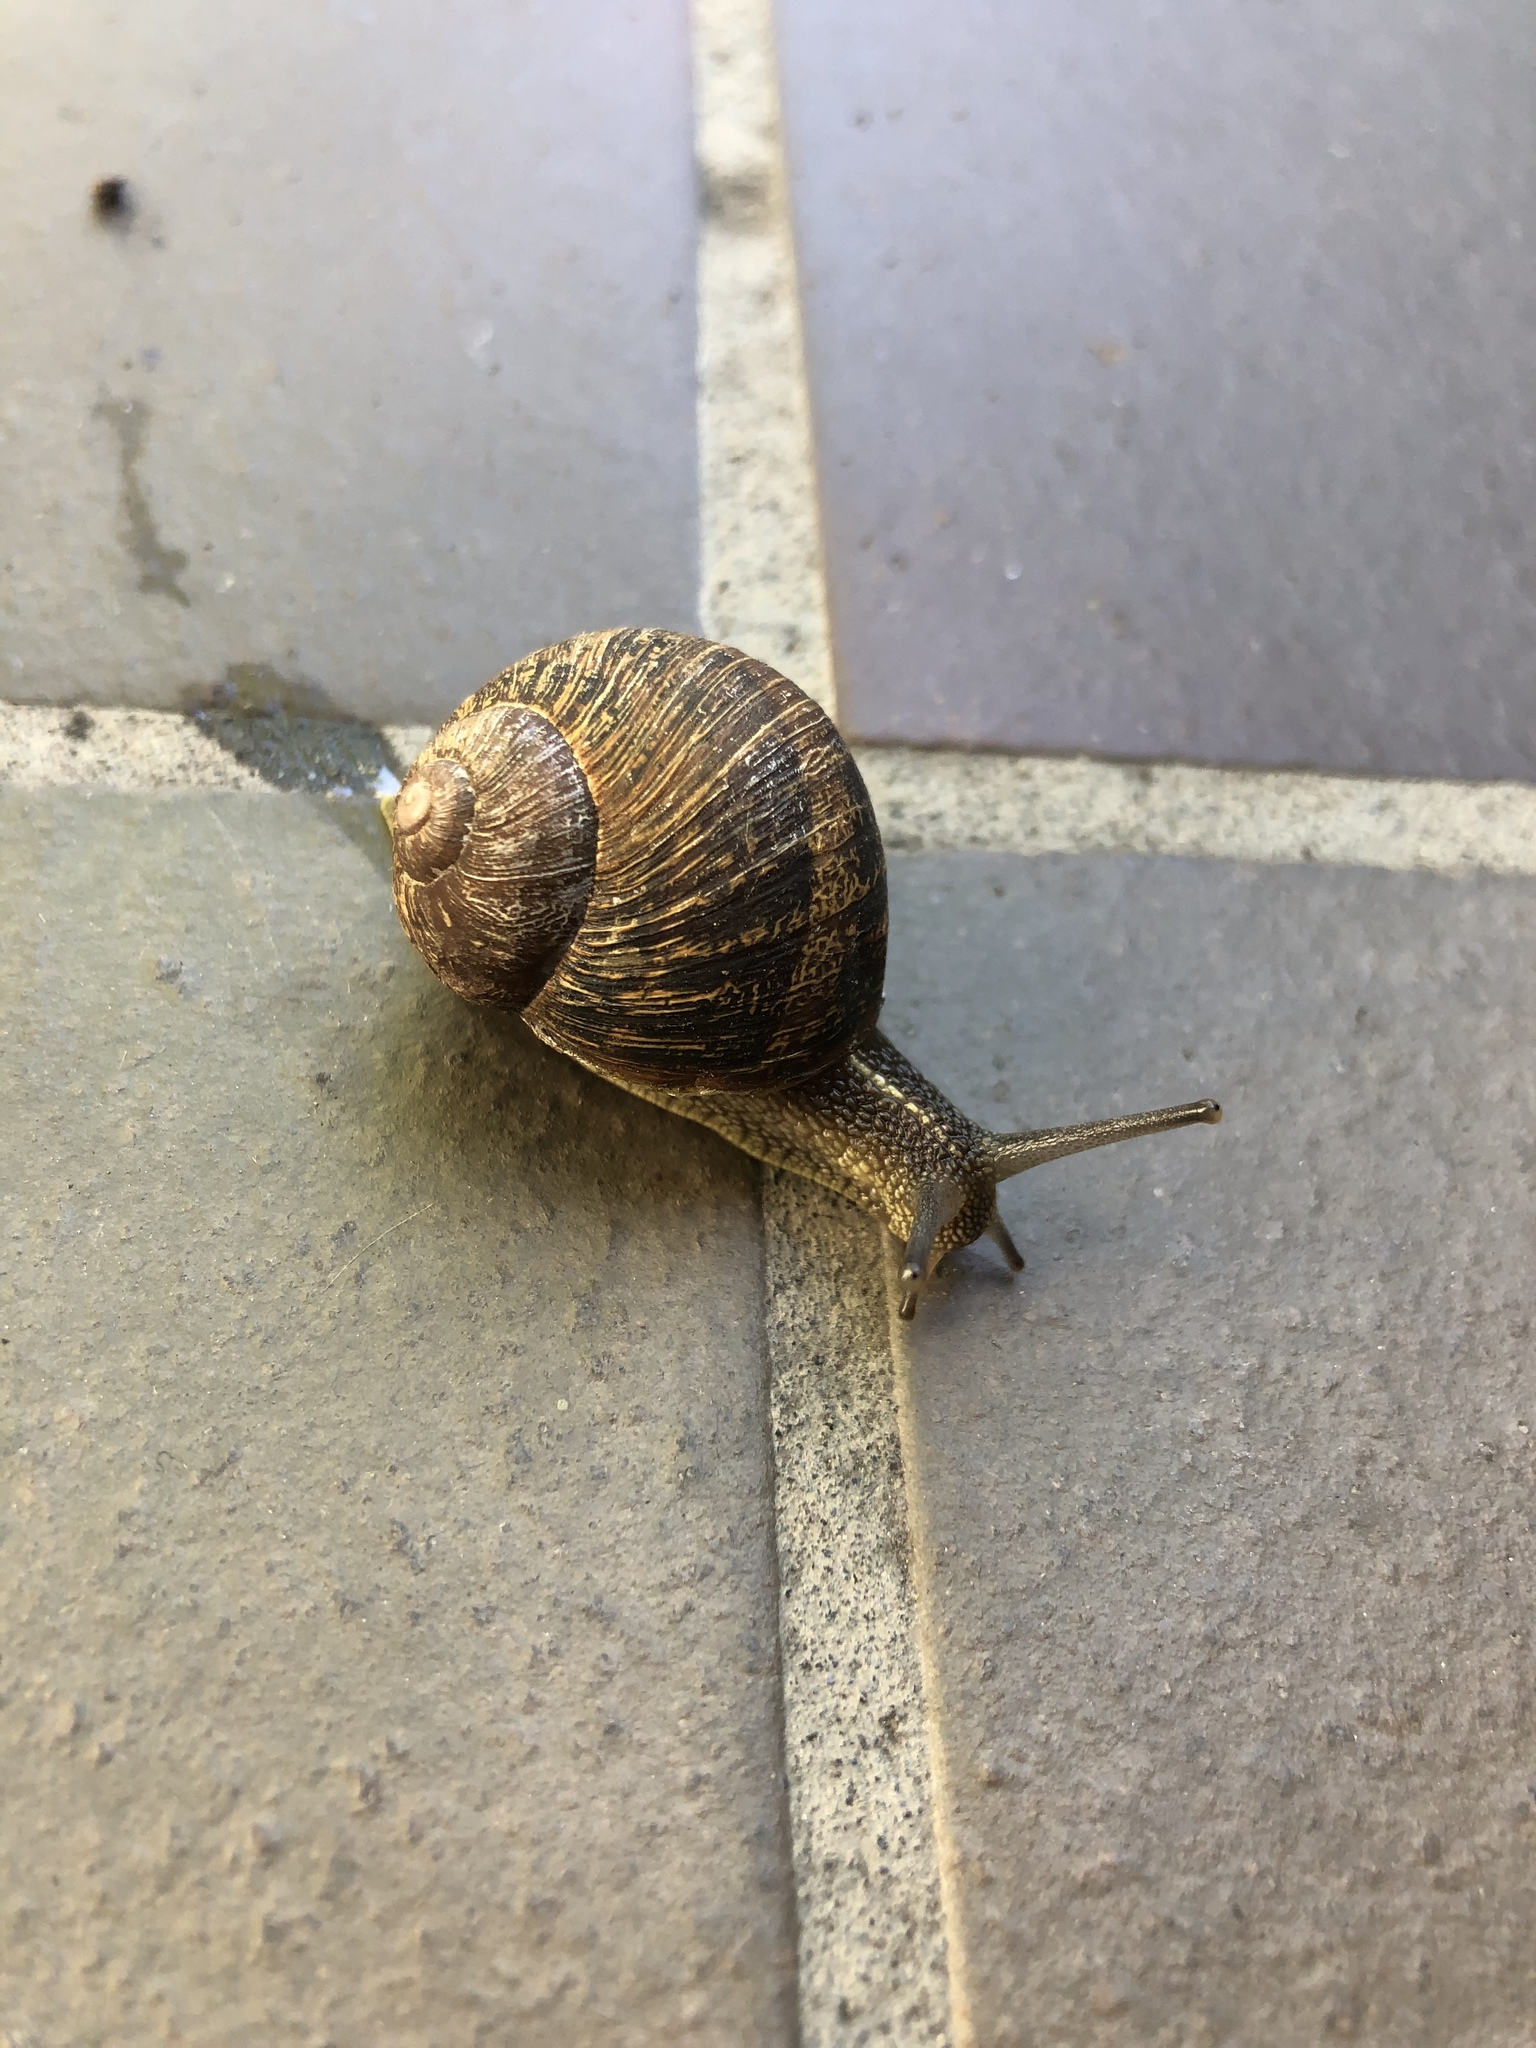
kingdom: Animalia
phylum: Mollusca
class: Gastropoda
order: Stylommatophora
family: Helicidae
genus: Cornu
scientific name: Cornu aspersum
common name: Brown garden snail
